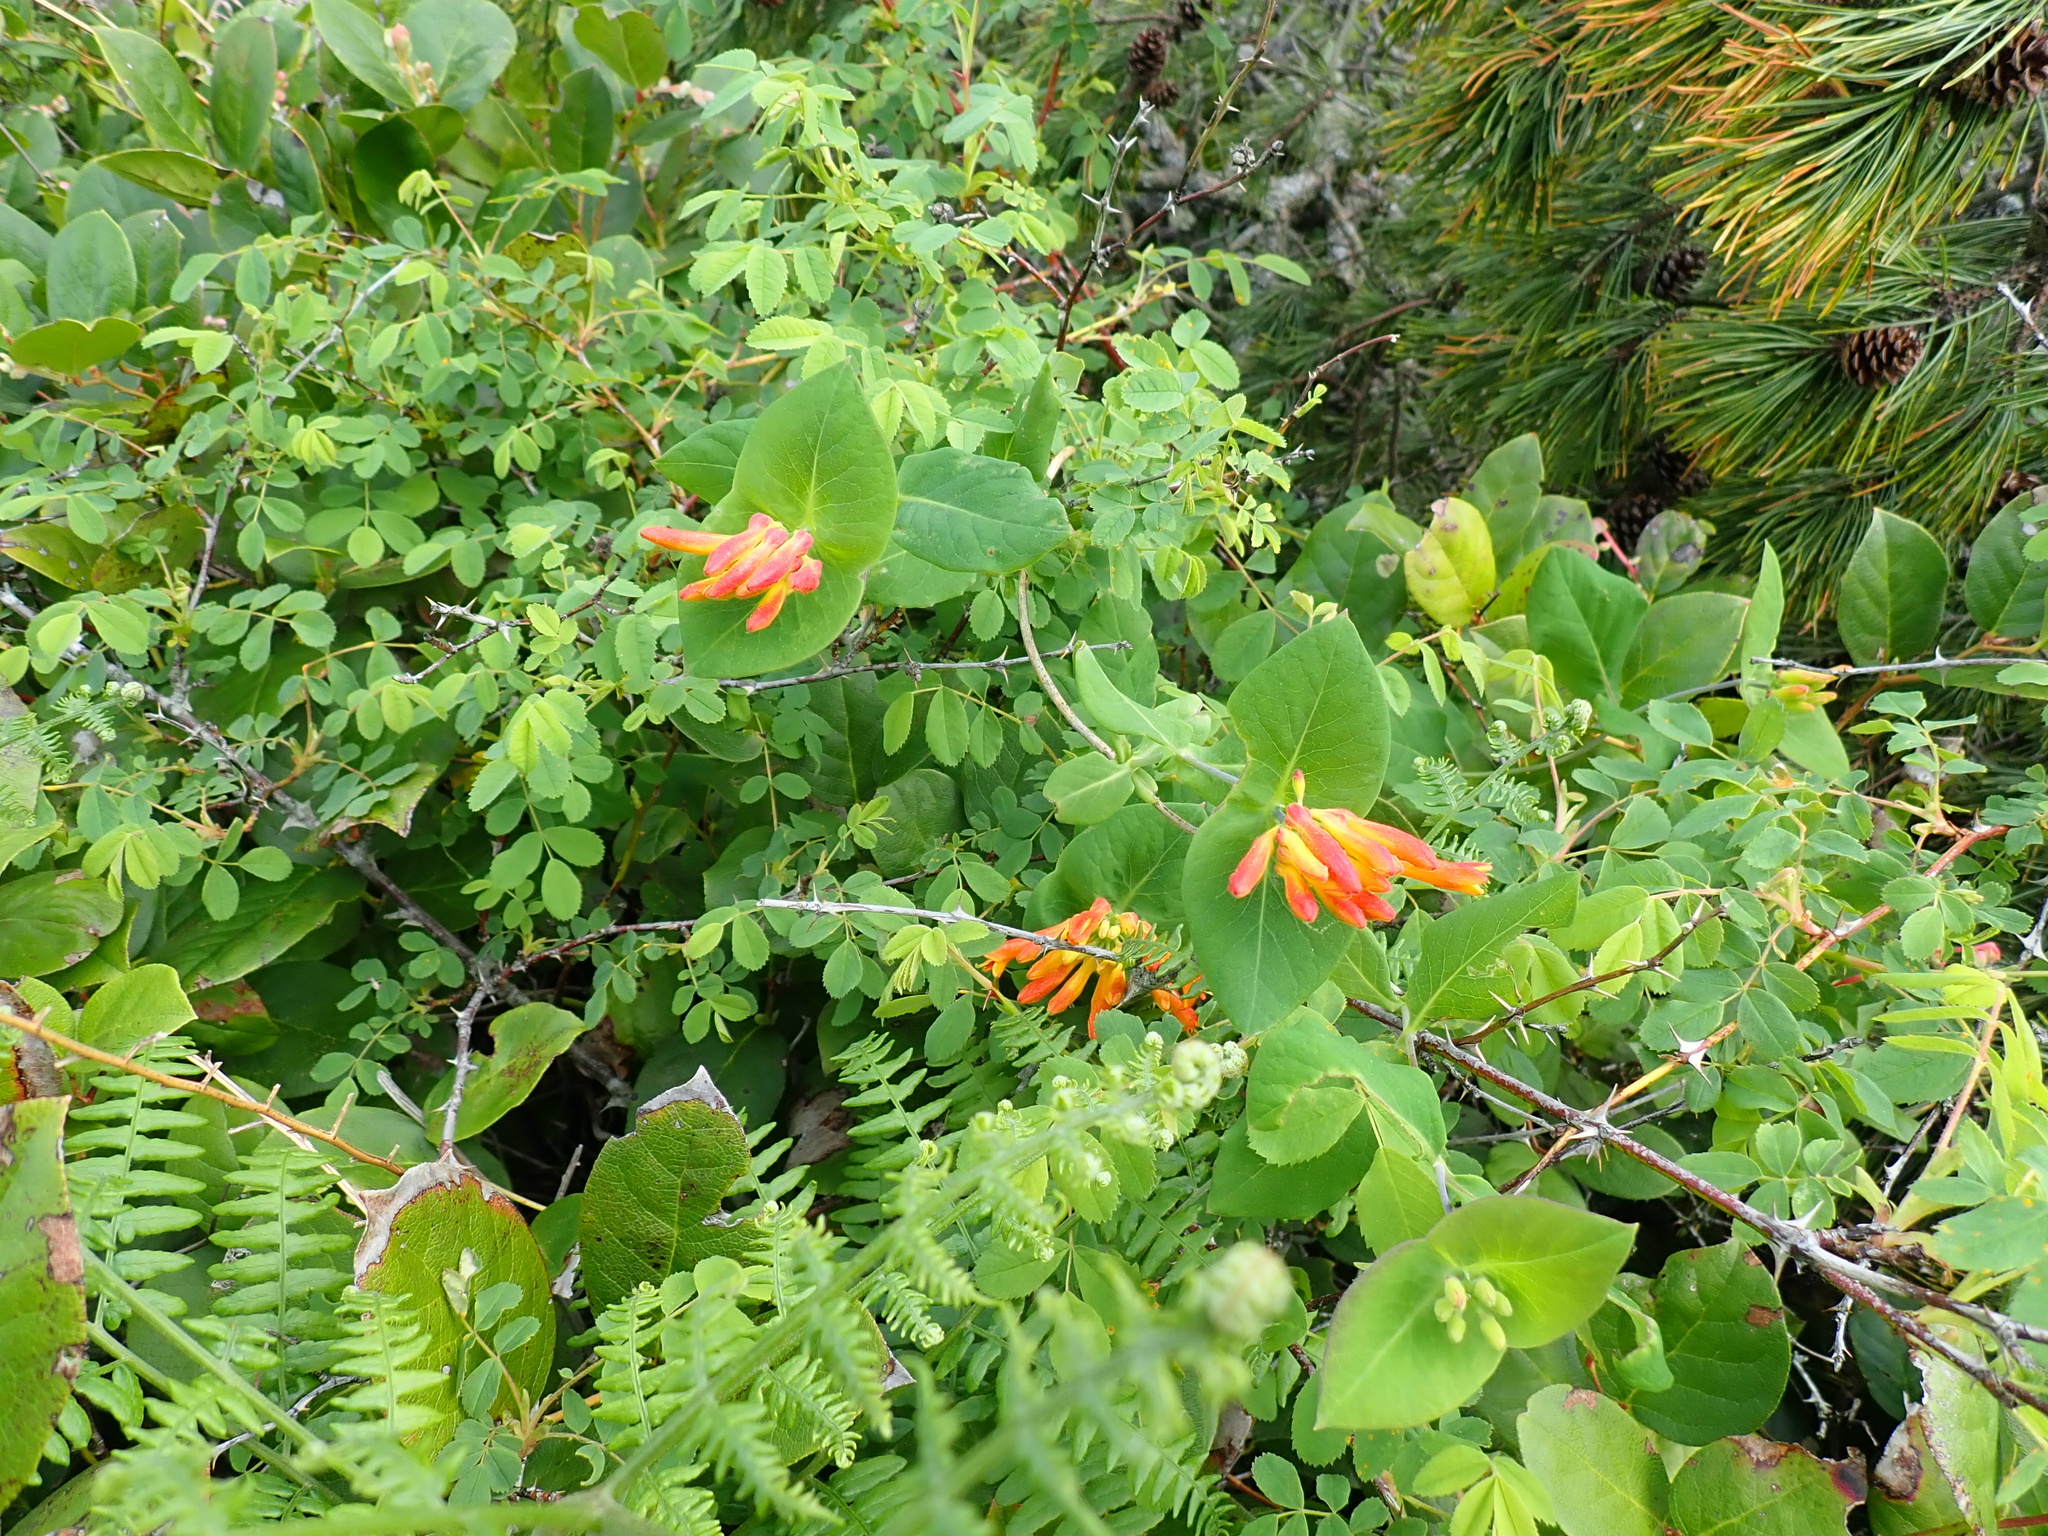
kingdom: Plantae
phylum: Tracheophyta
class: Magnoliopsida
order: Dipsacales
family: Caprifoliaceae
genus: Lonicera
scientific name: Lonicera ciliosa
